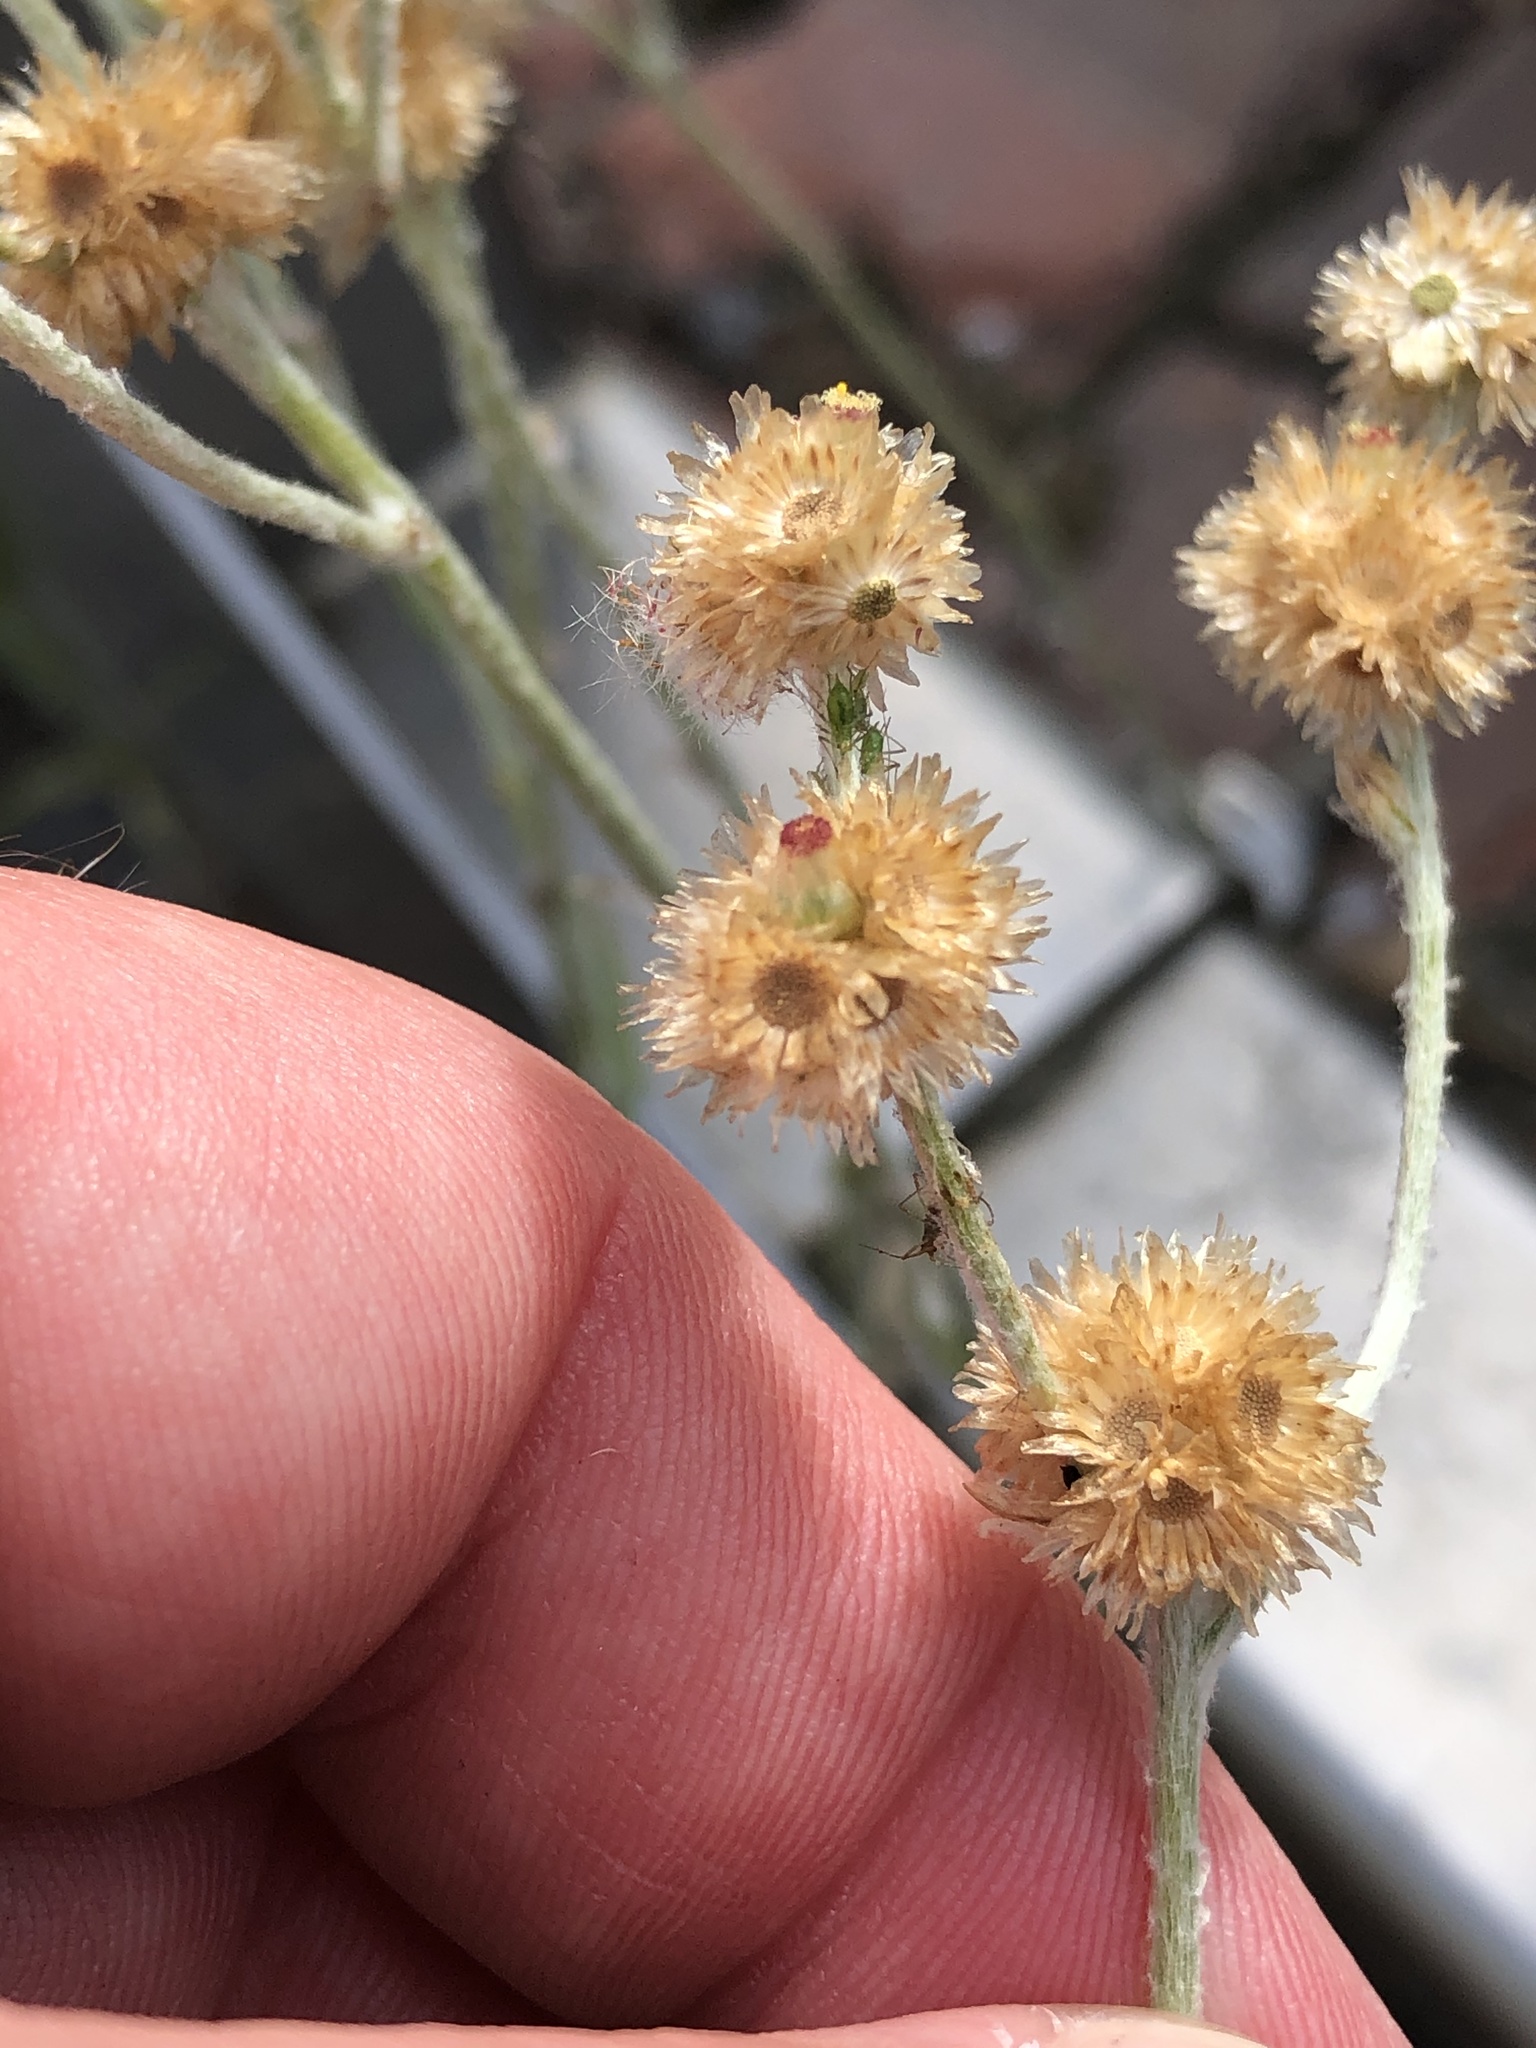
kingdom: Plantae
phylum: Tracheophyta
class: Magnoliopsida
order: Asterales
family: Asteraceae
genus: Helichrysum
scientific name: Helichrysum luteoalbum
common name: Daisy
